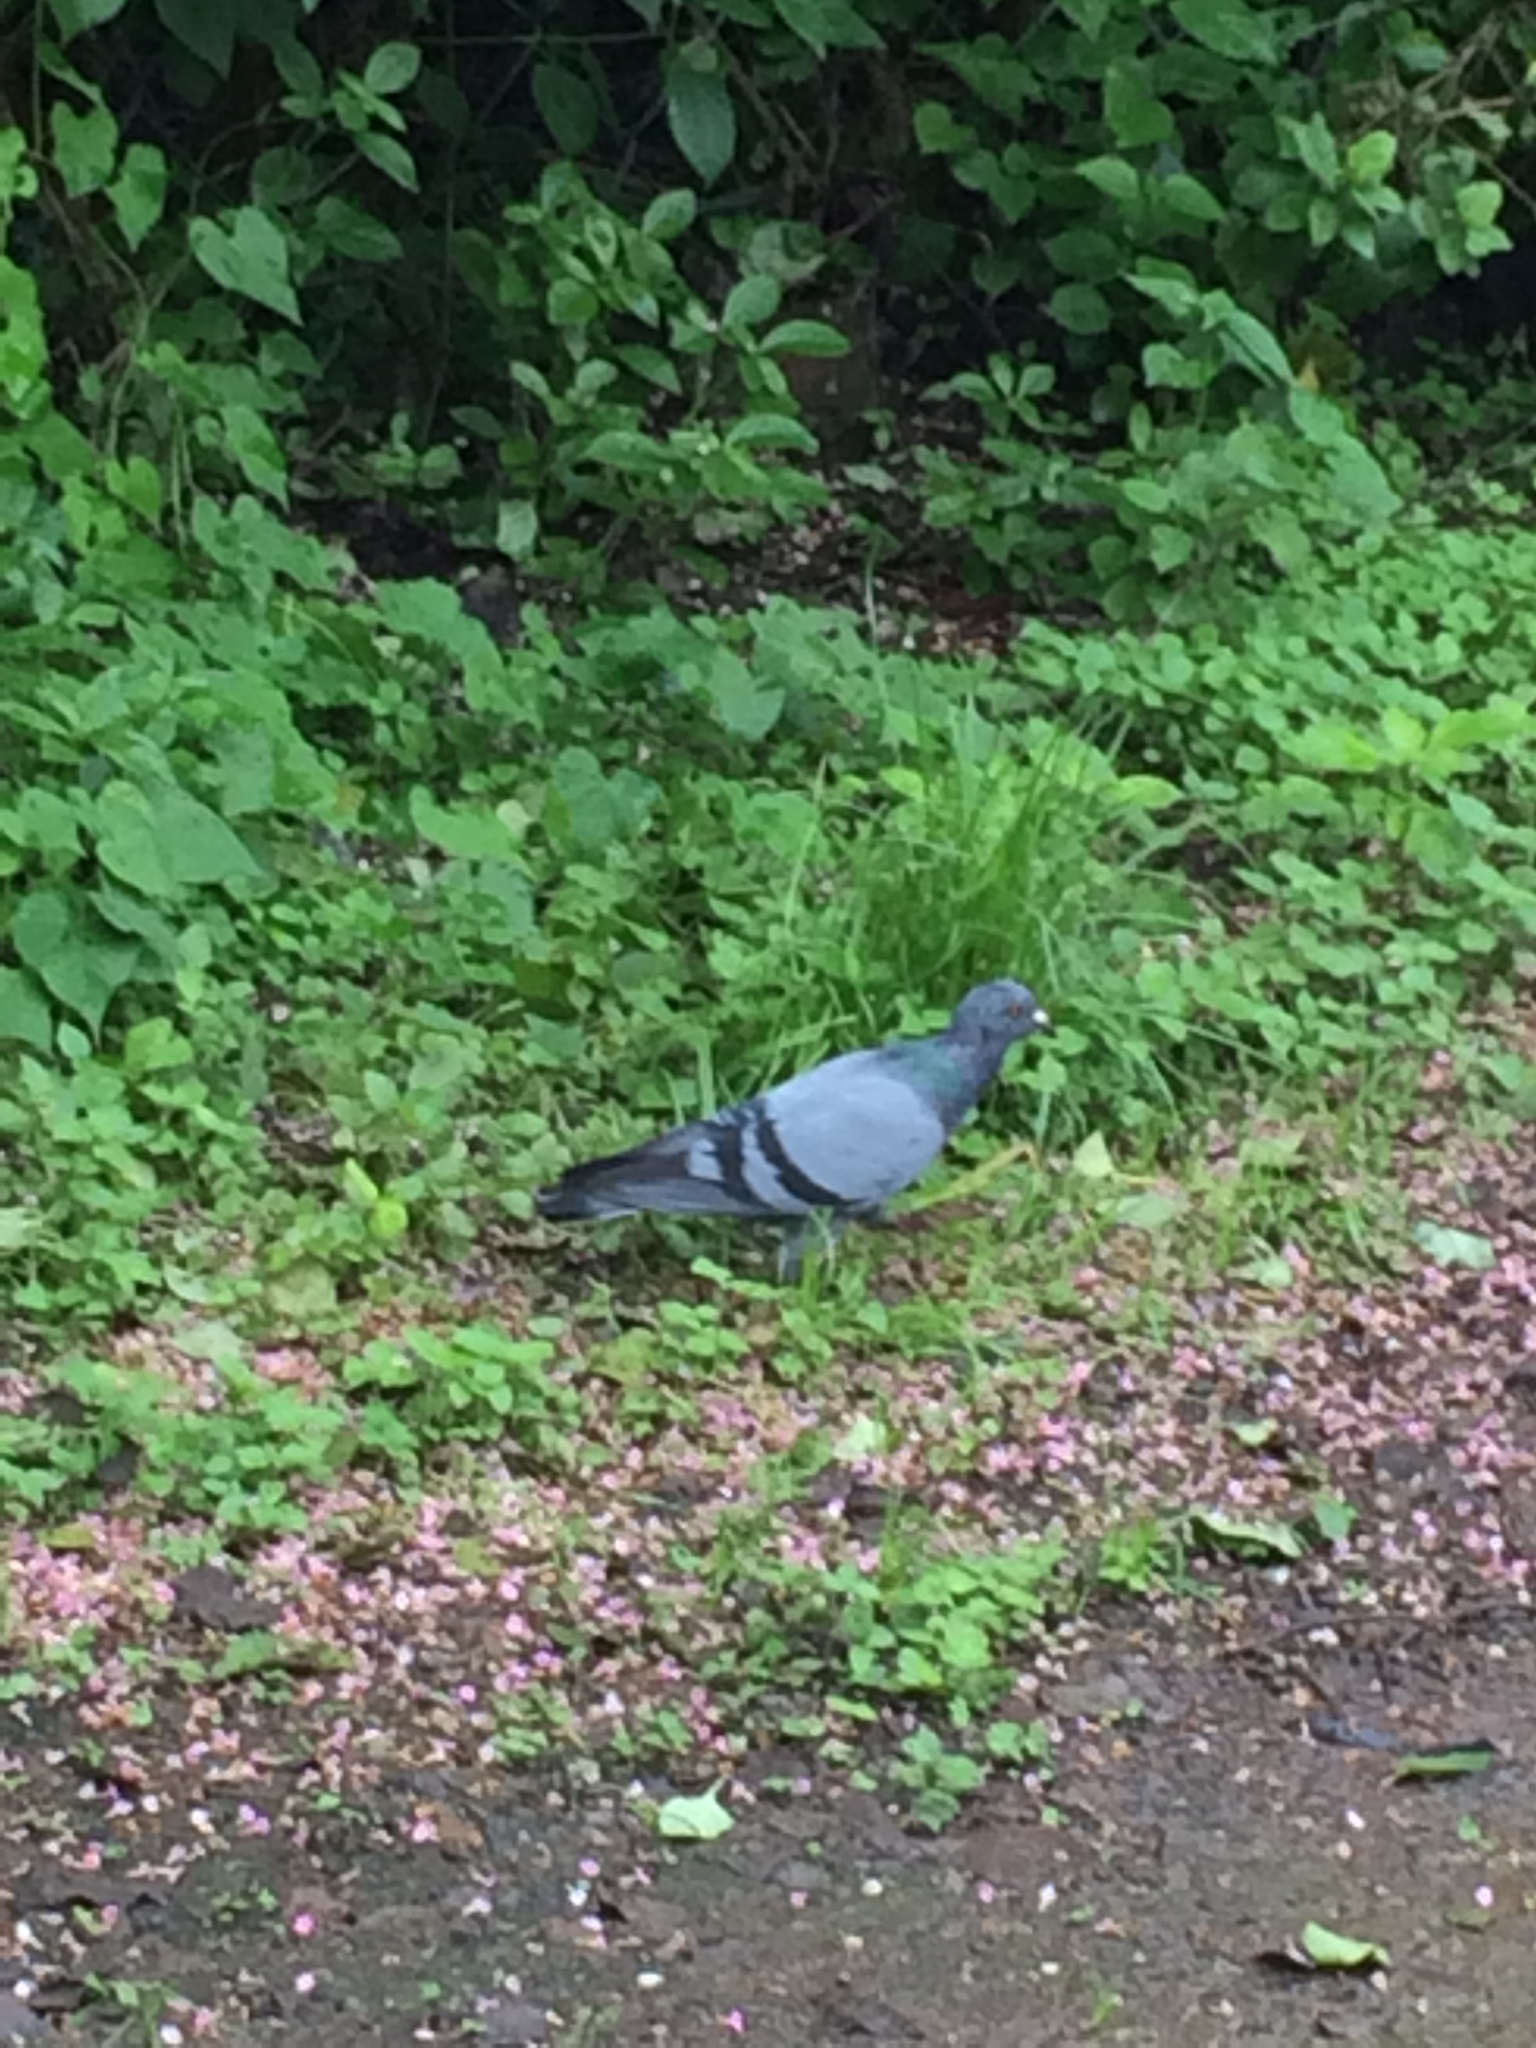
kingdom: Animalia
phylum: Chordata
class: Aves
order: Columbiformes
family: Columbidae
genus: Columba
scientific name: Columba livia
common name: Rock pigeon
